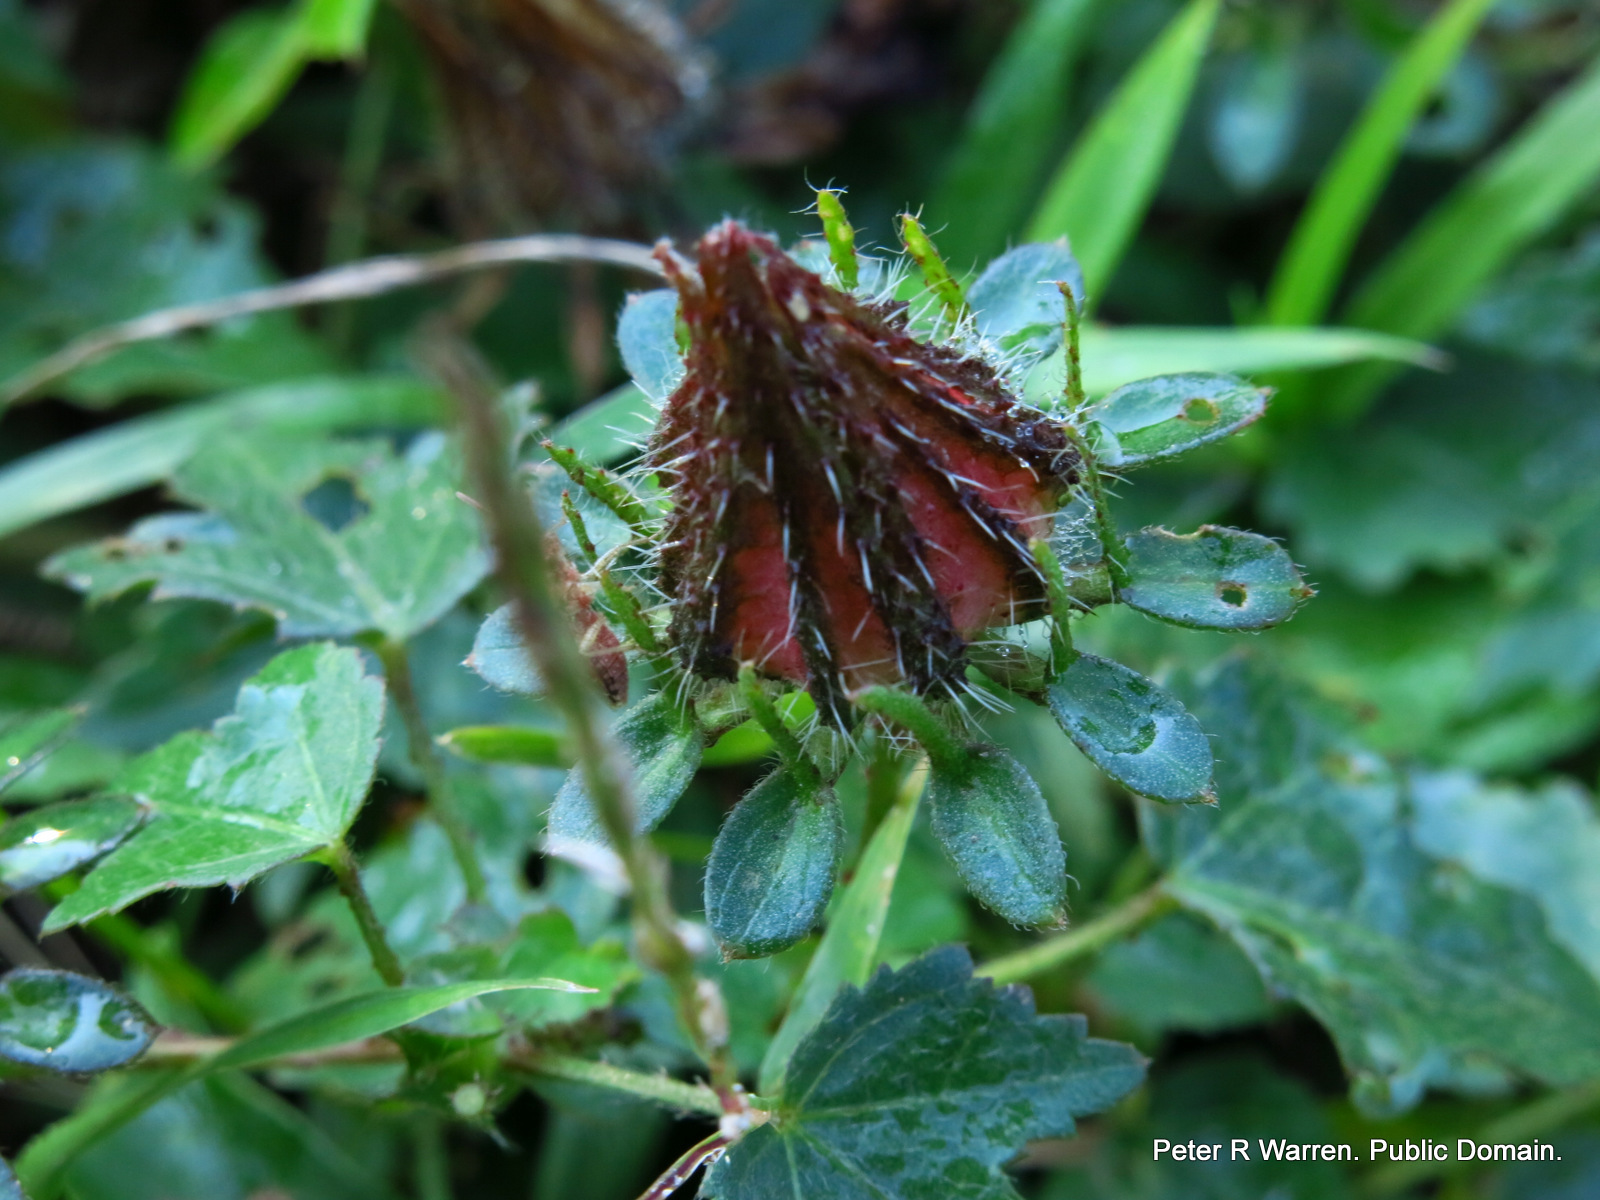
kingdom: Plantae
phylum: Tracheophyta
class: Magnoliopsida
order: Malvales
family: Malvaceae
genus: Hibiscus
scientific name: Hibiscus surattensis
